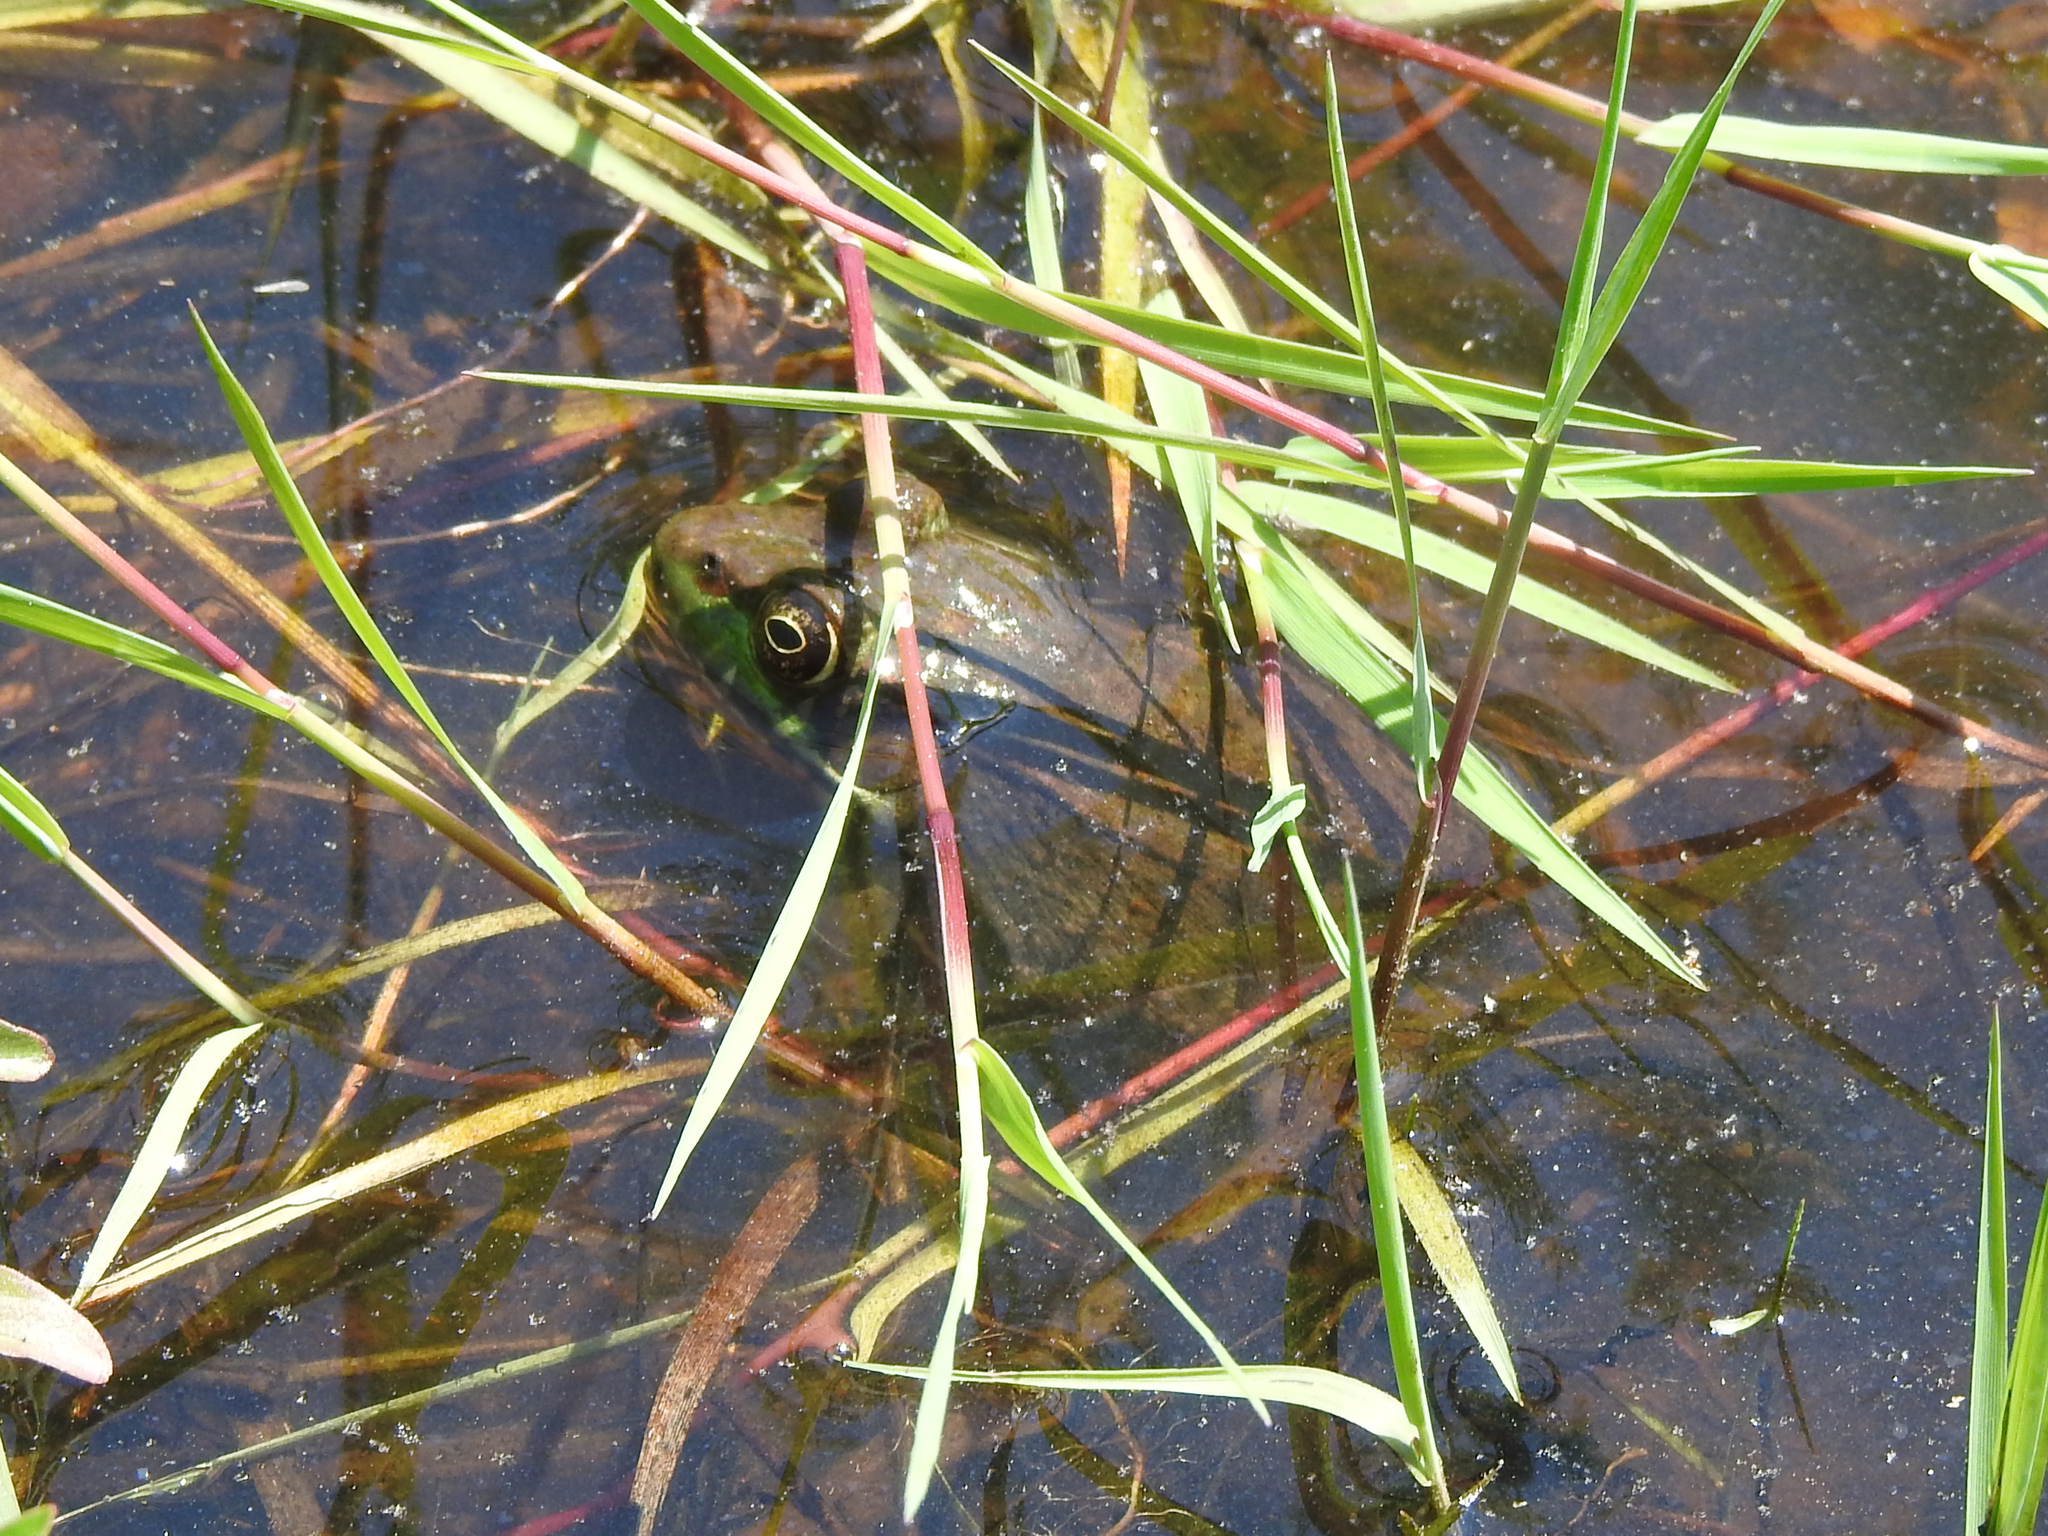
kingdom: Animalia
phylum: Chordata
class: Amphibia
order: Anura
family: Ranidae
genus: Lithobates
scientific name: Lithobates clamitans
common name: Green frog
